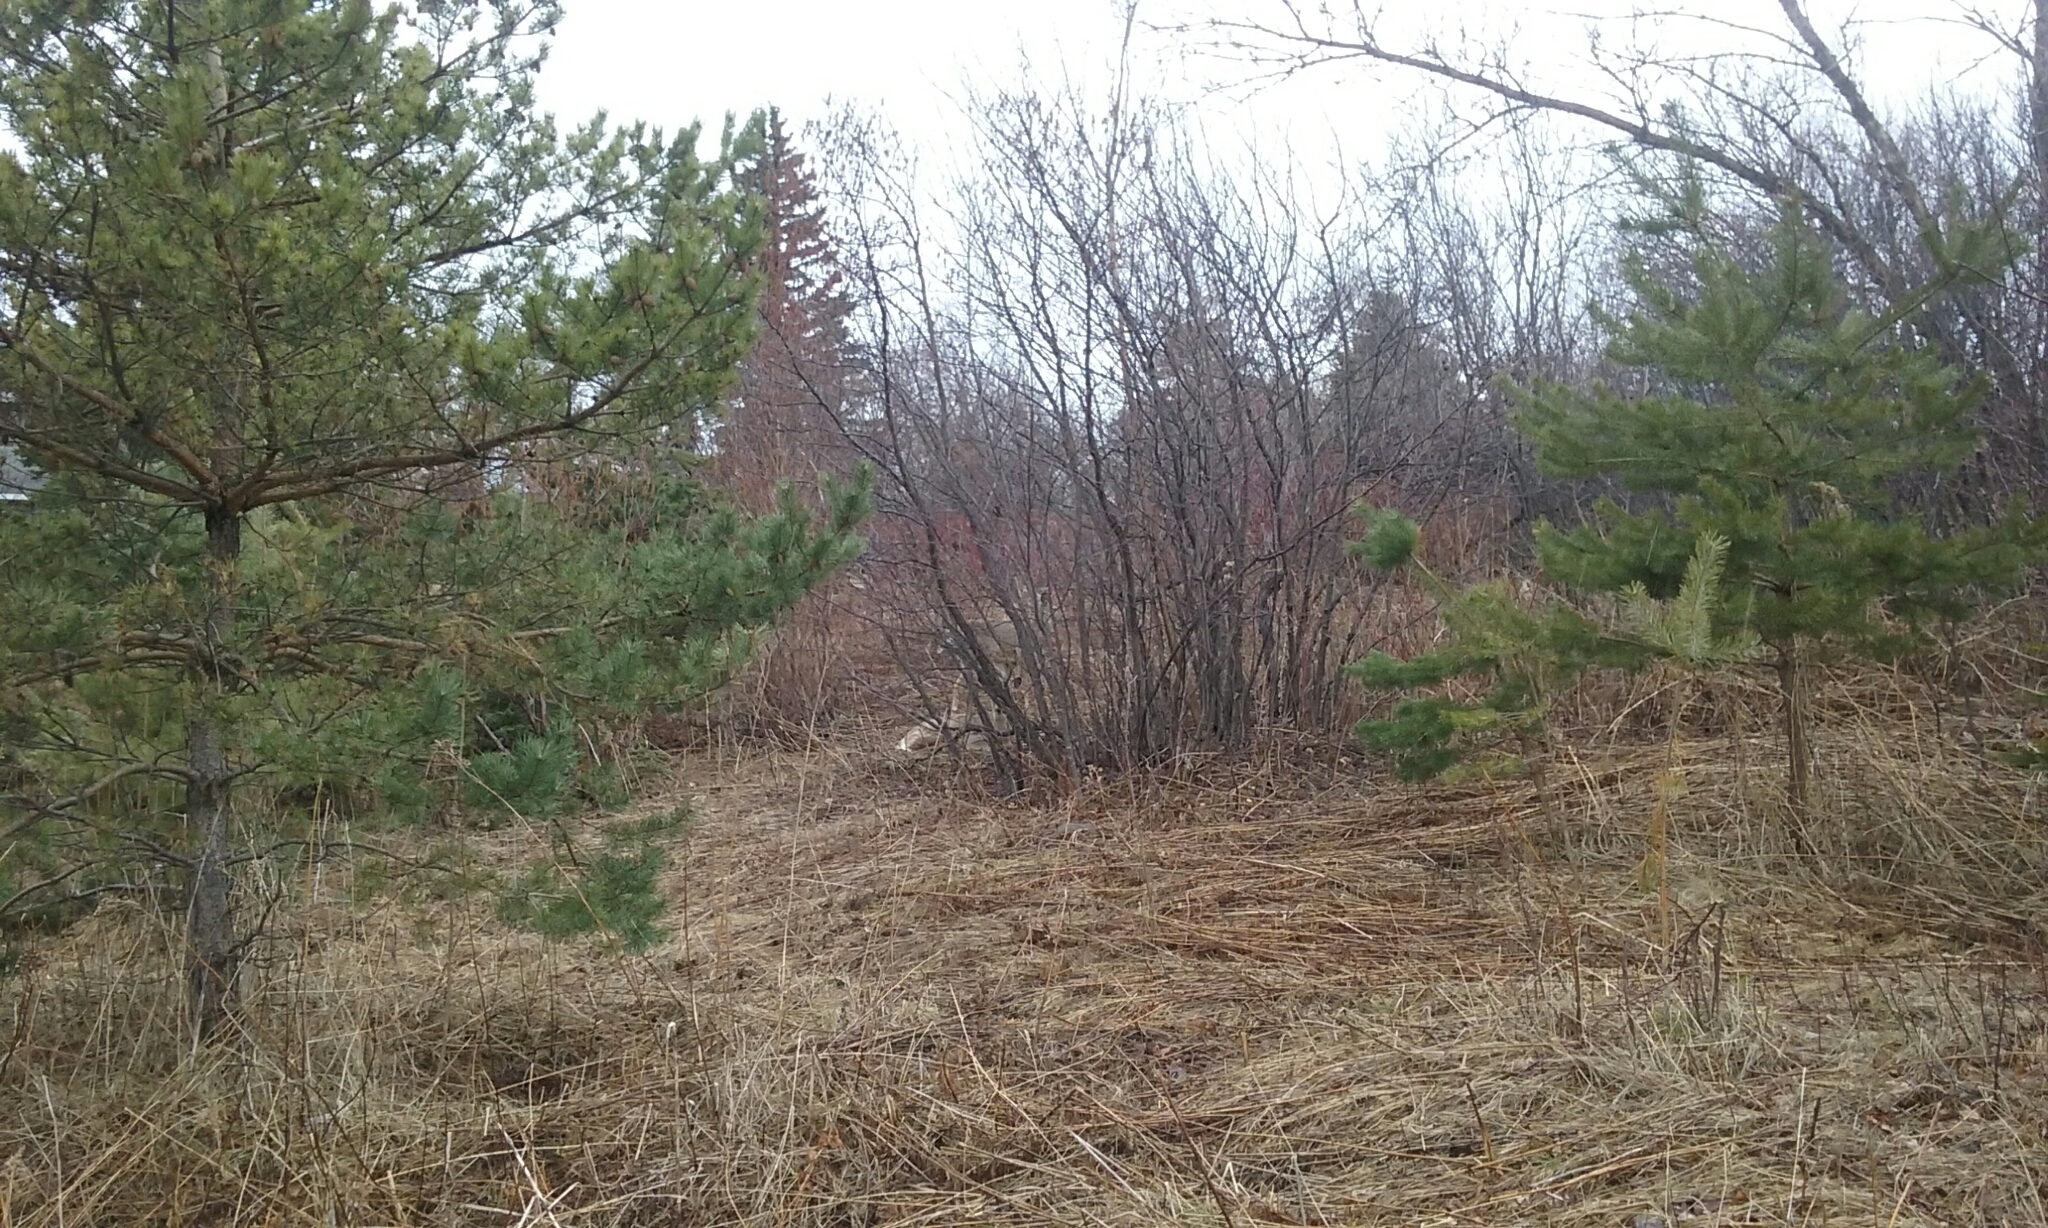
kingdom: Animalia
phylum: Chordata
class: Mammalia
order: Artiodactyla
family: Cervidae
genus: Odocoileus
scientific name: Odocoileus virginianus
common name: White-tailed deer
